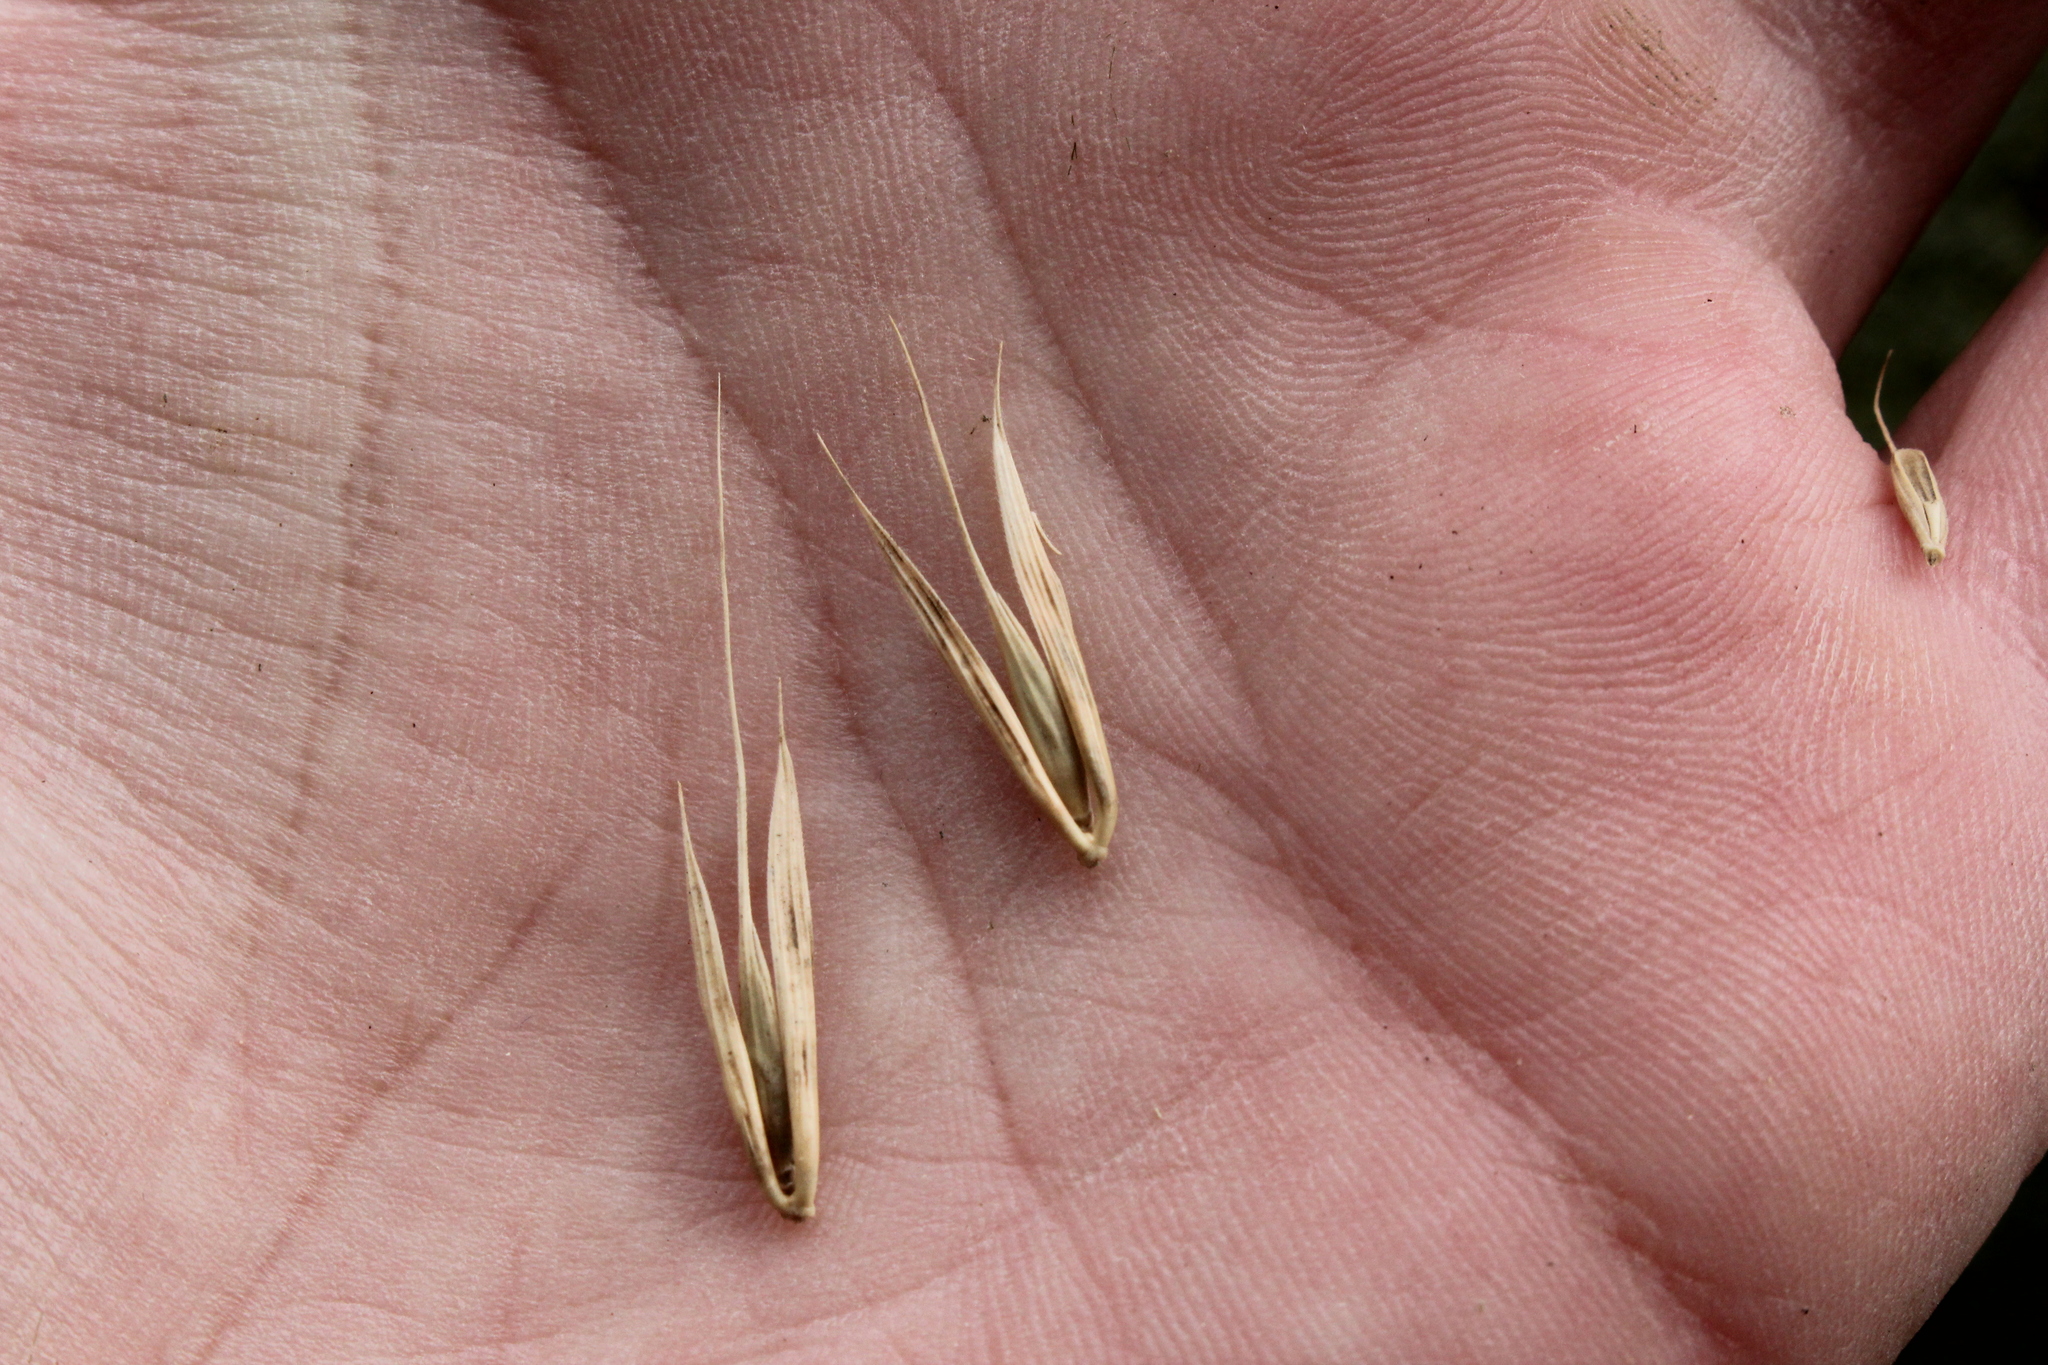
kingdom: Plantae
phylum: Tracheophyta
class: Liliopsida
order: Poales
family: Poaceae
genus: Elymus
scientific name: Elymus virginicus
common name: Common eastern wildrye
